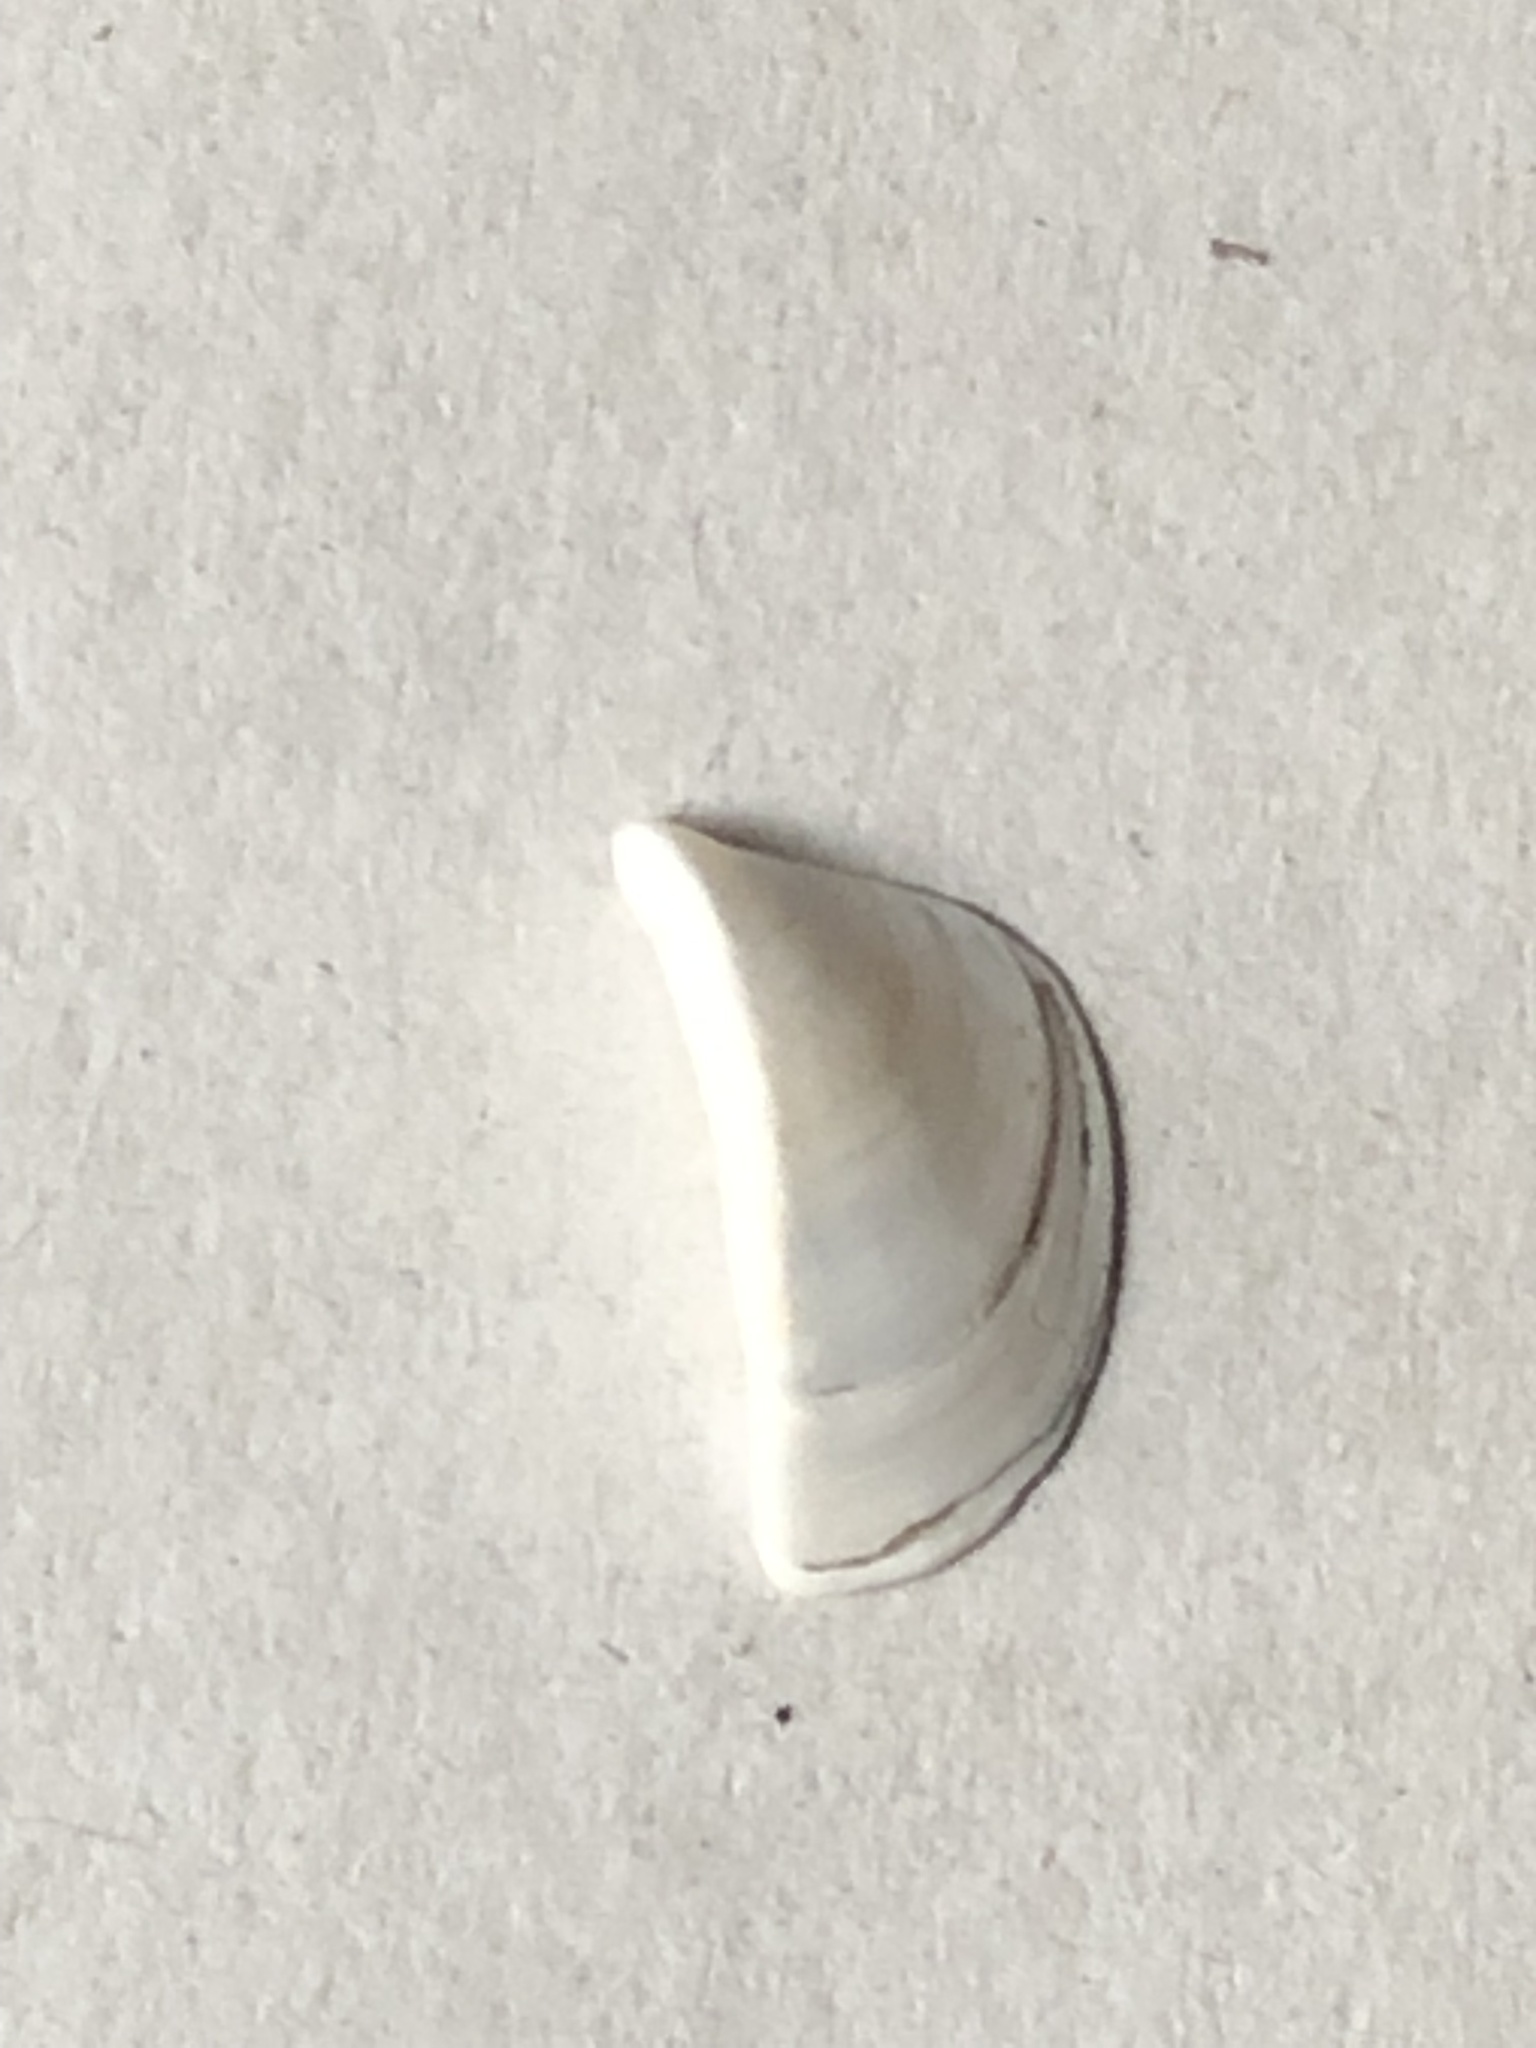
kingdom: Animalia
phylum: Mollusca
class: Bivalvia
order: Myida
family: Dreissenidae
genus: Dreissena
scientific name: Dreissena polymorpha
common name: Zebra mussel
